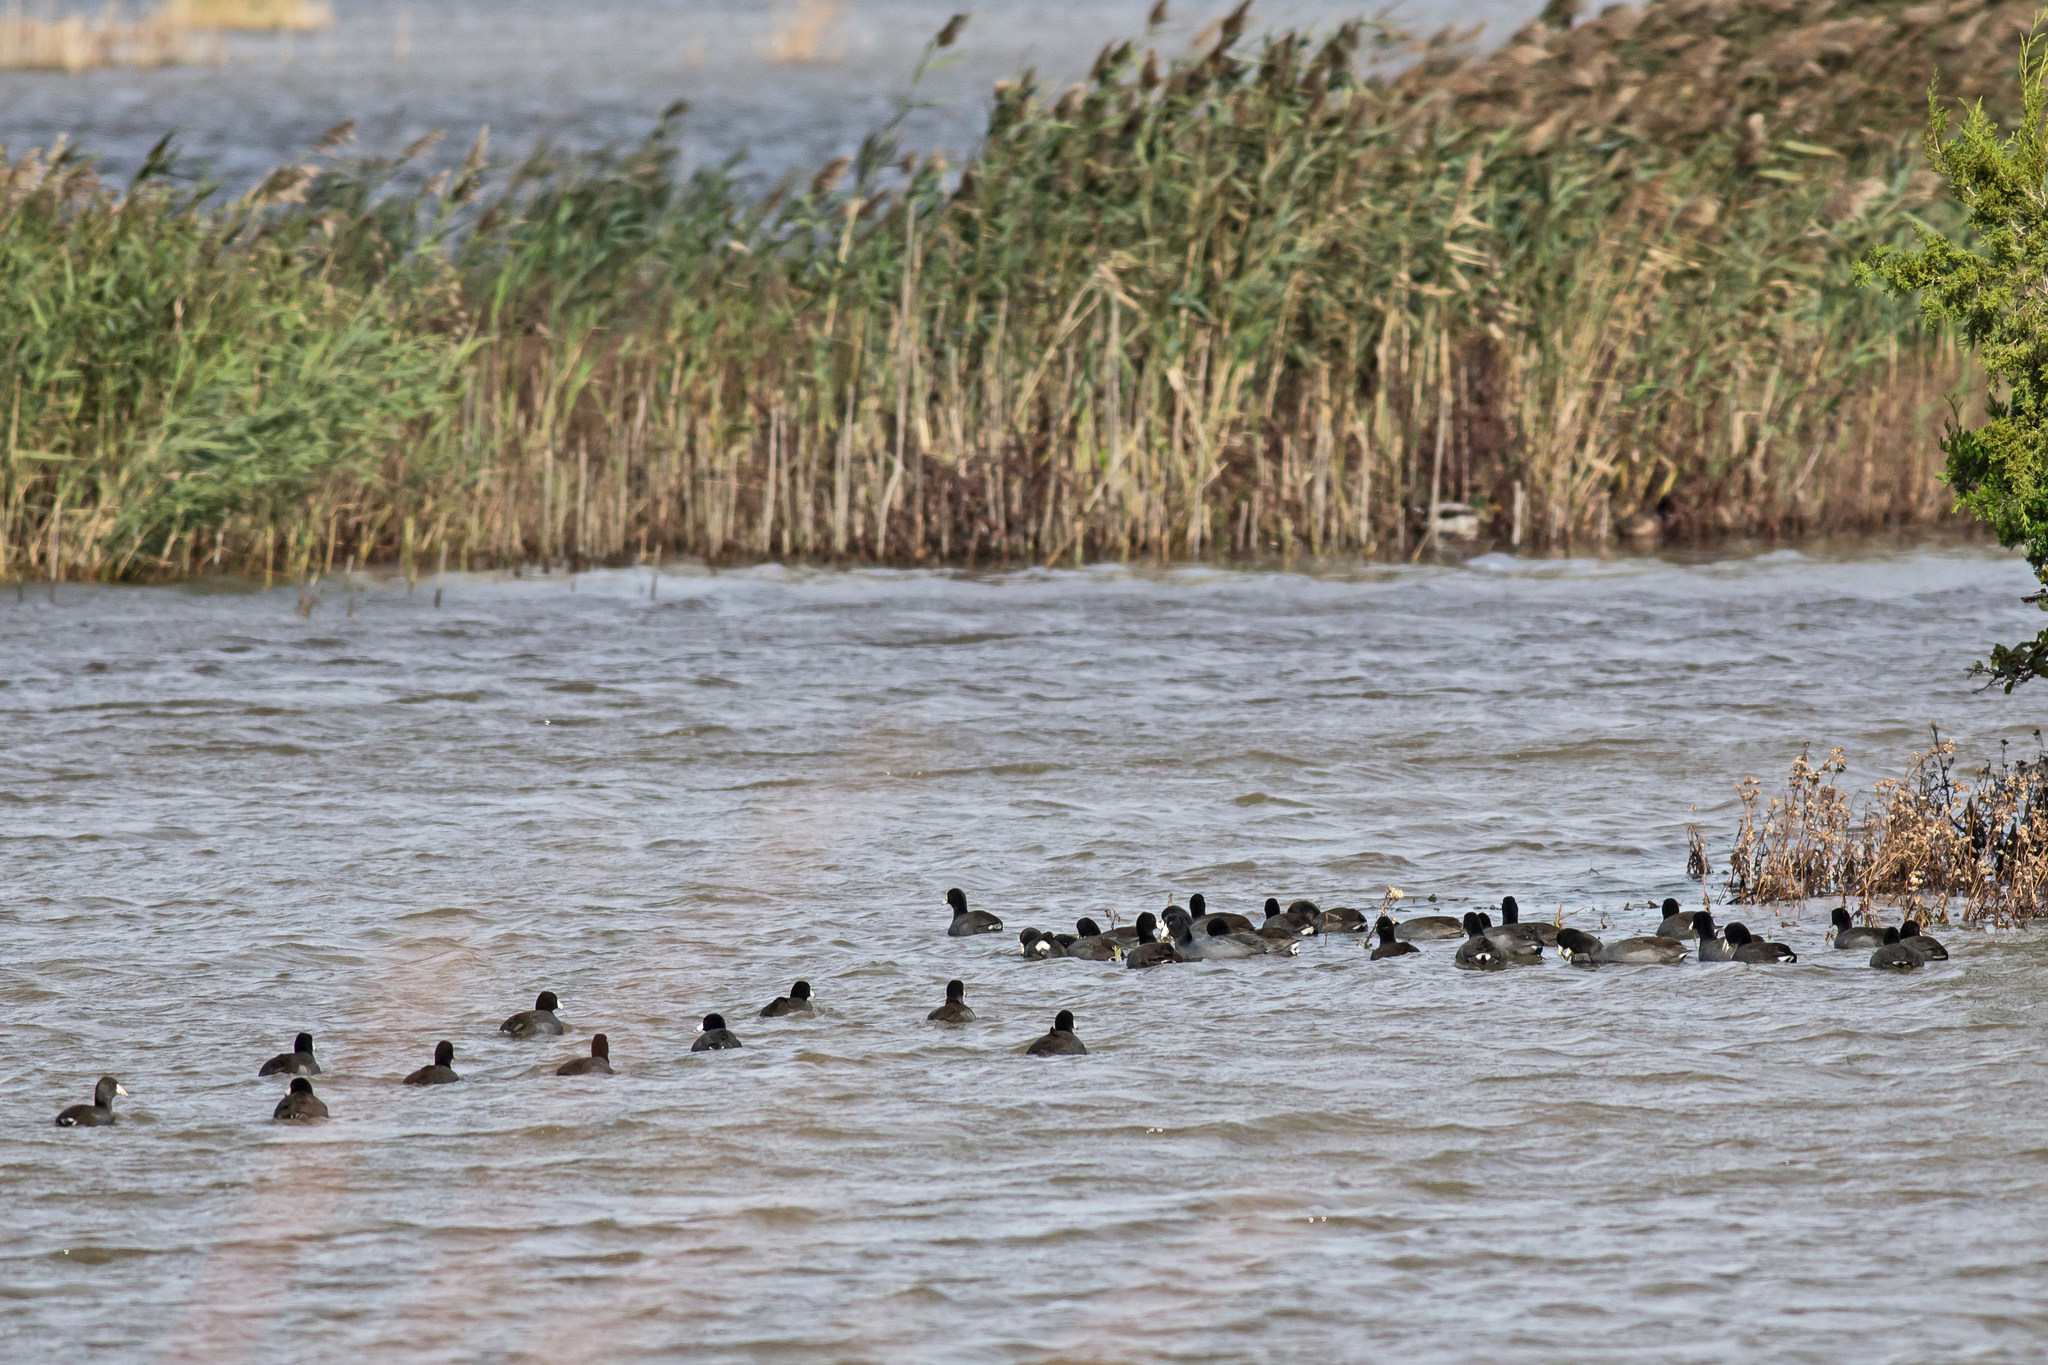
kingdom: Animalia
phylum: Chordata
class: Aves
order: Gruiformes
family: Rallidae
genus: Fulica
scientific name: Fulica americana
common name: American coot
